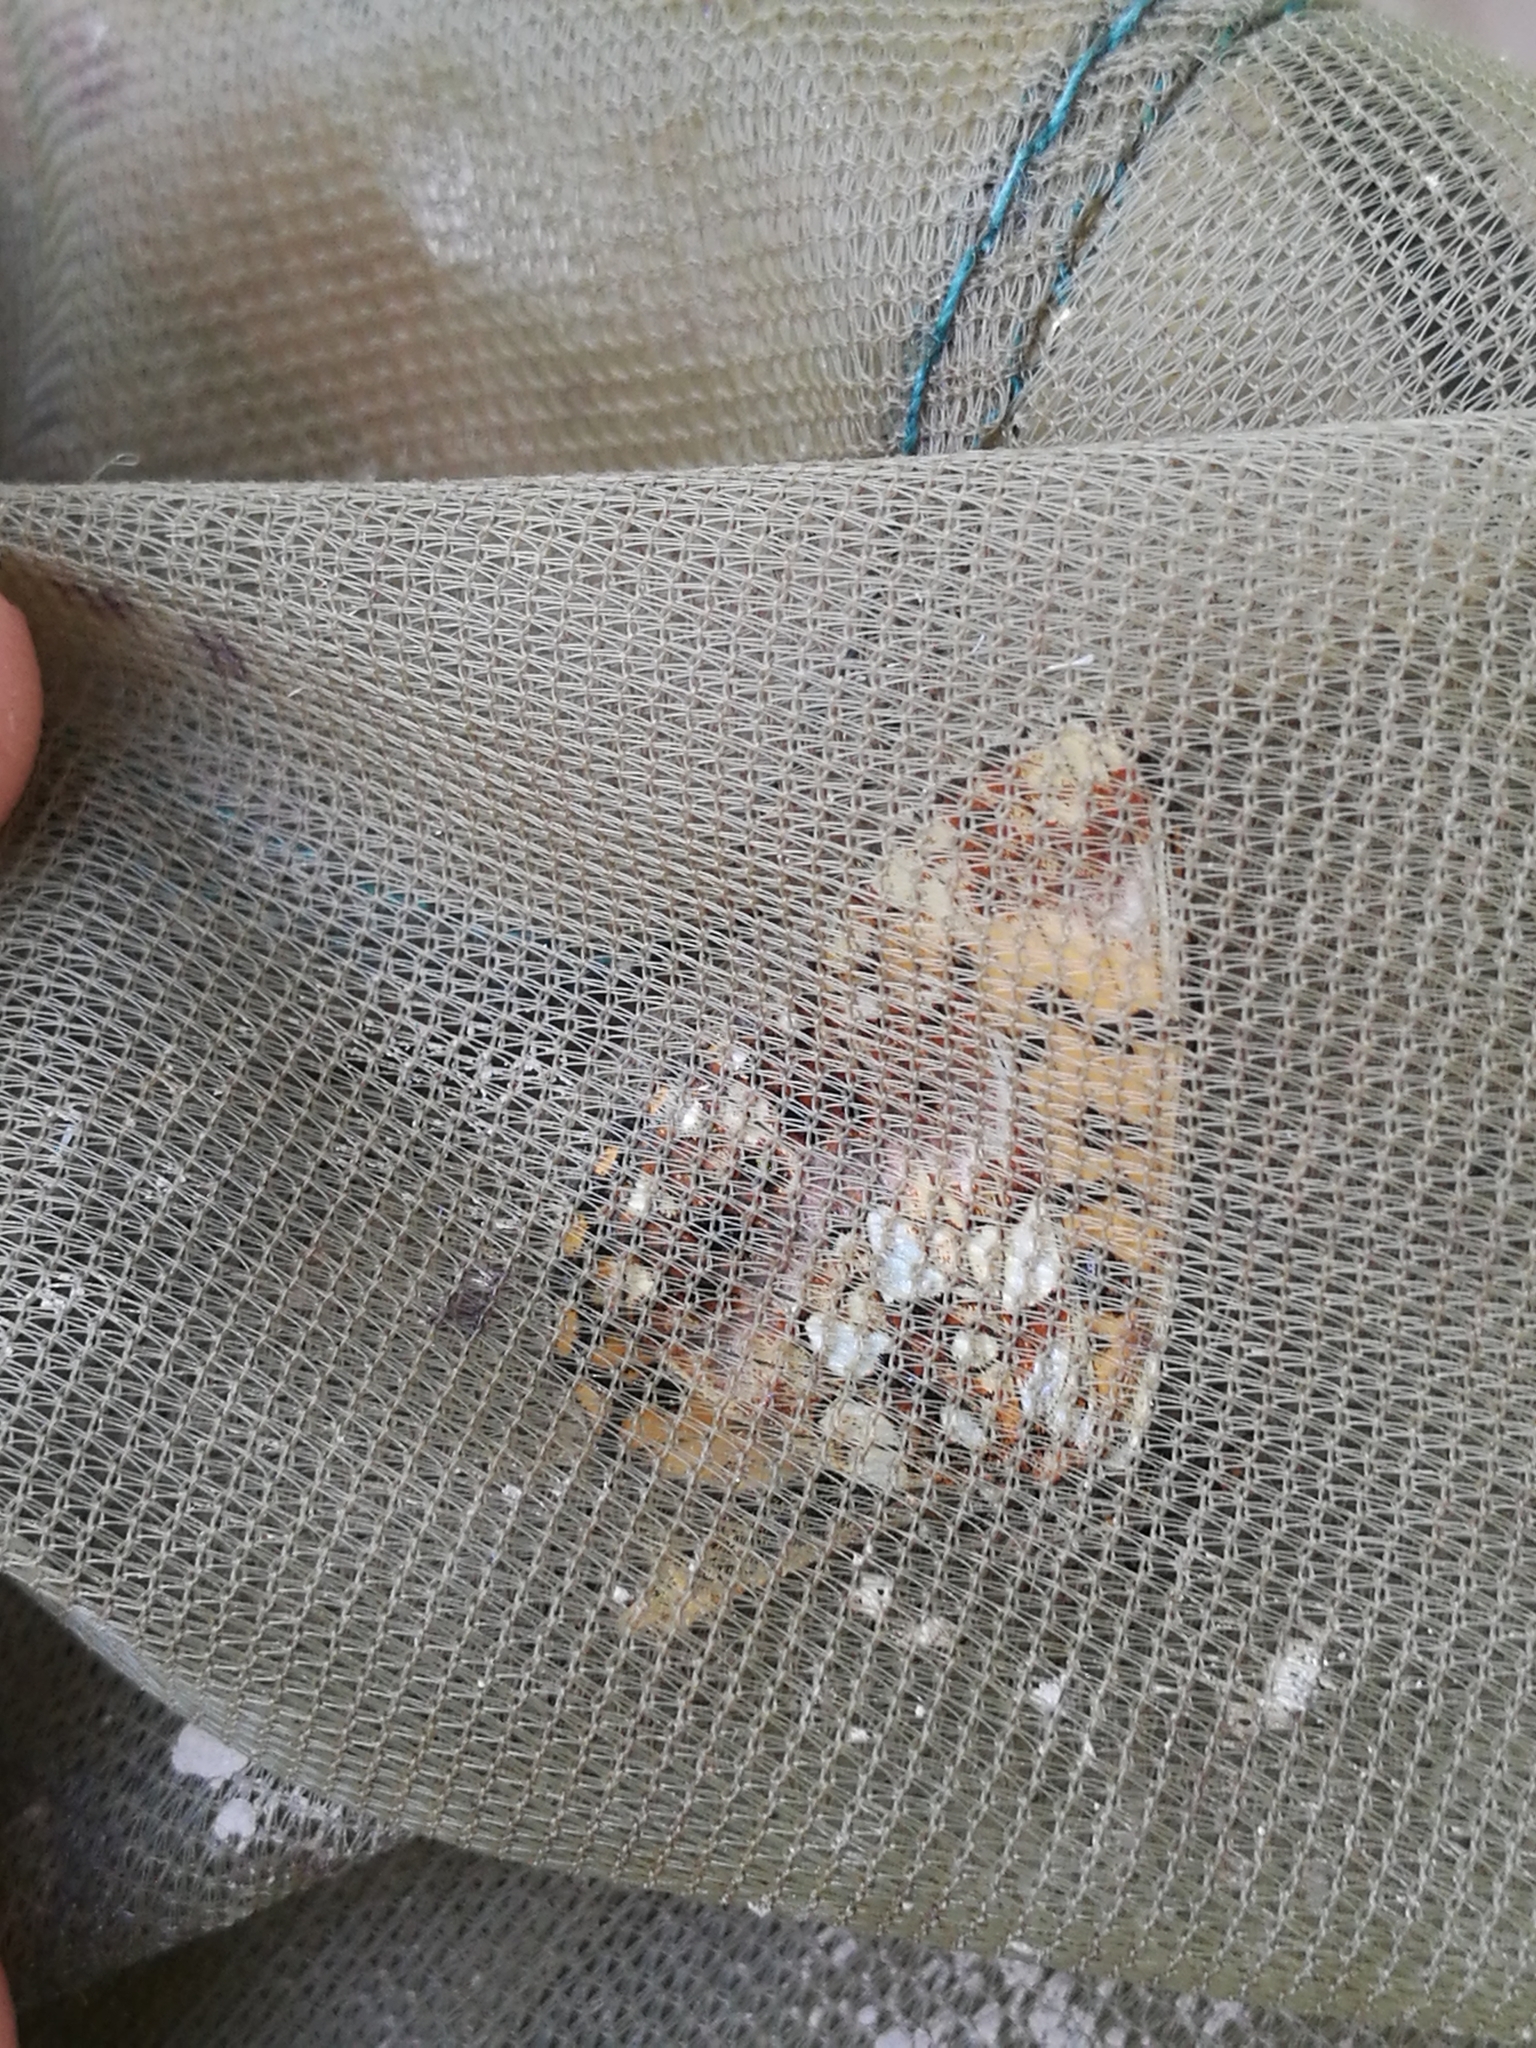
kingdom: Animalia
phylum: Arthropoda
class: Insecta
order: Lepidoptera
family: Nymphalidae
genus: Boloria
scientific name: Boloria dia
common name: Weaver's fritillary
